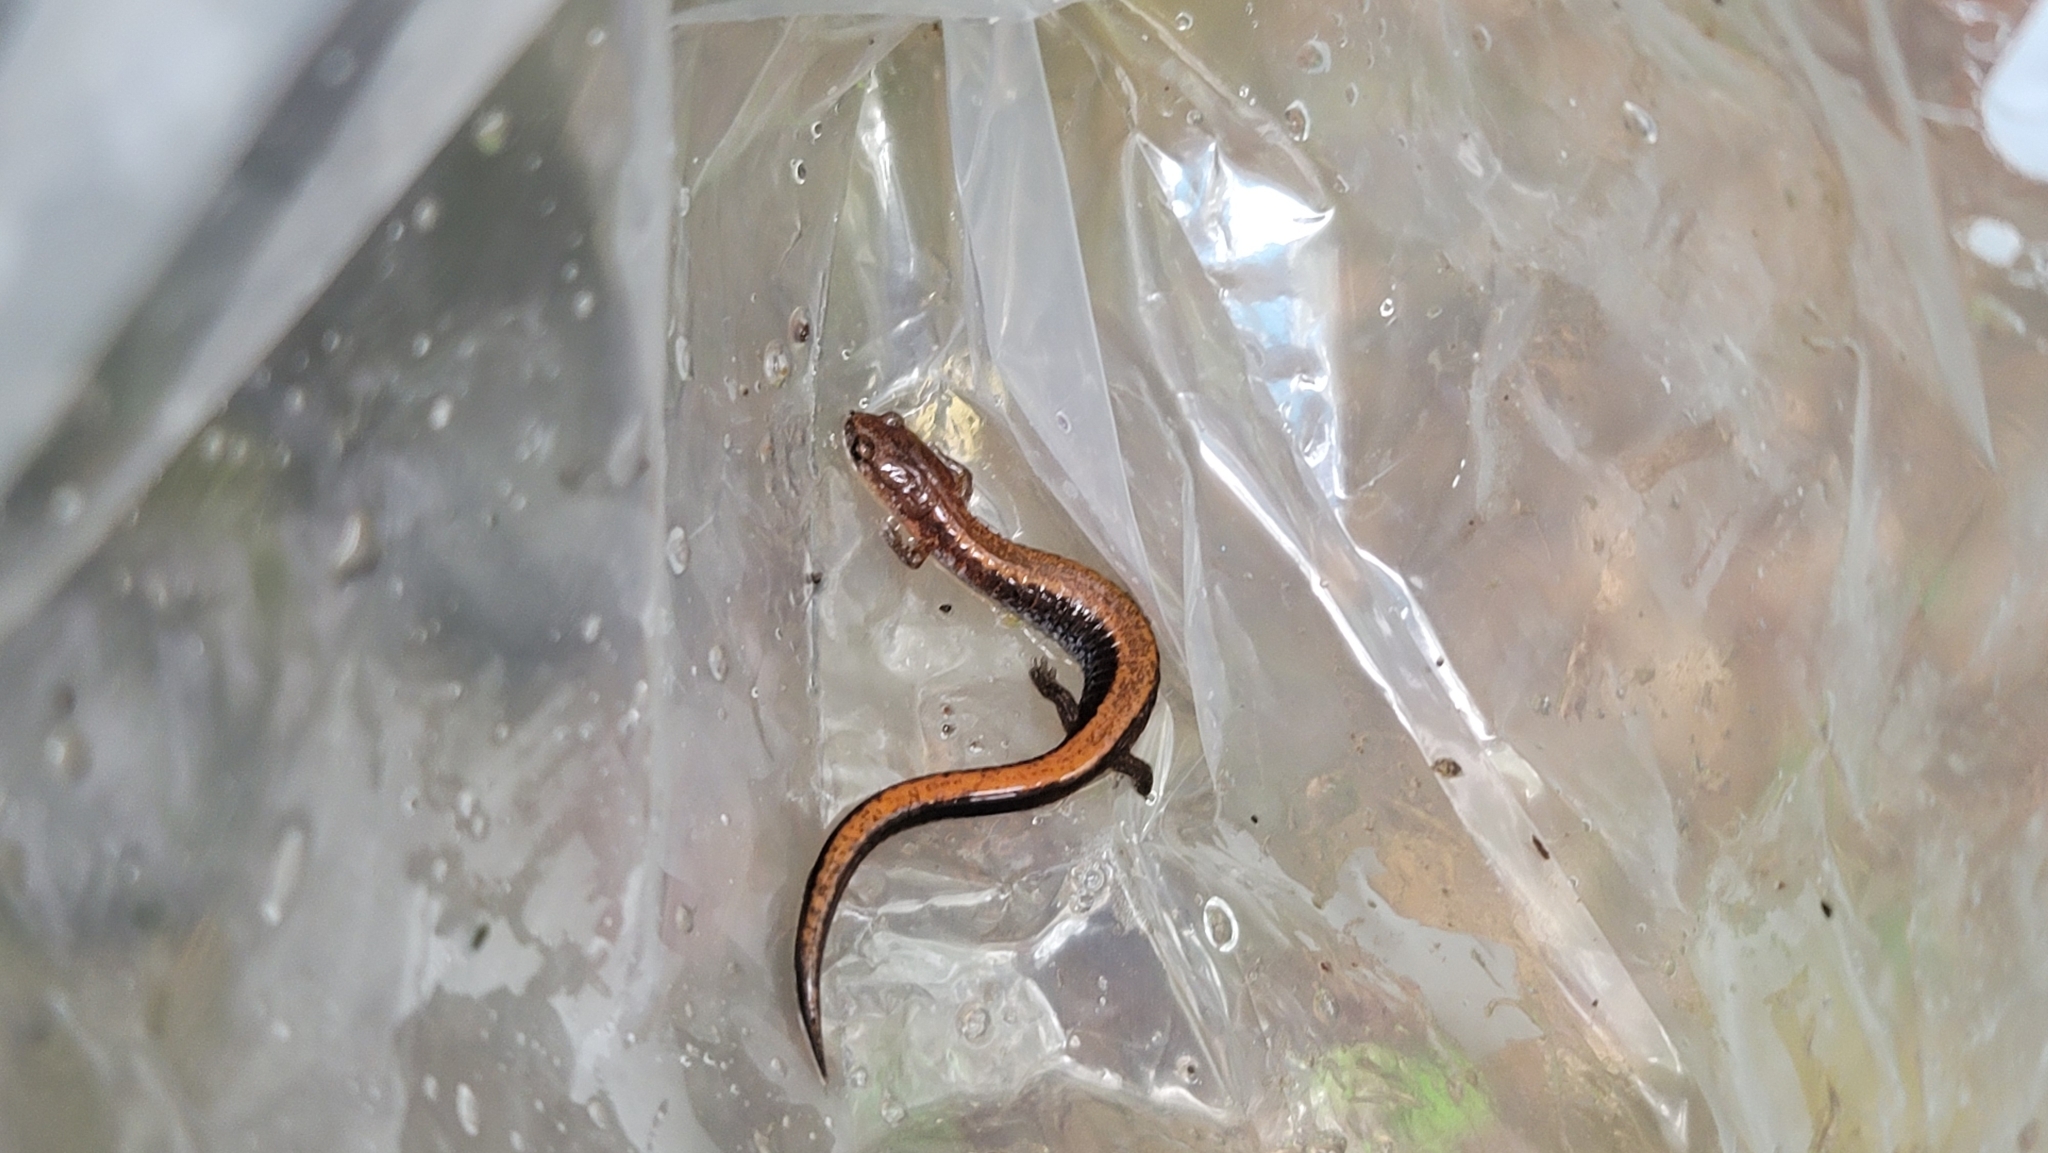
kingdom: Animalia
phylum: Chordata
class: Amphibia
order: Caudata
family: Plethodontidae
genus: Plethodon
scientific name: Plethodon serratus
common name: Southern red-backed salamander
